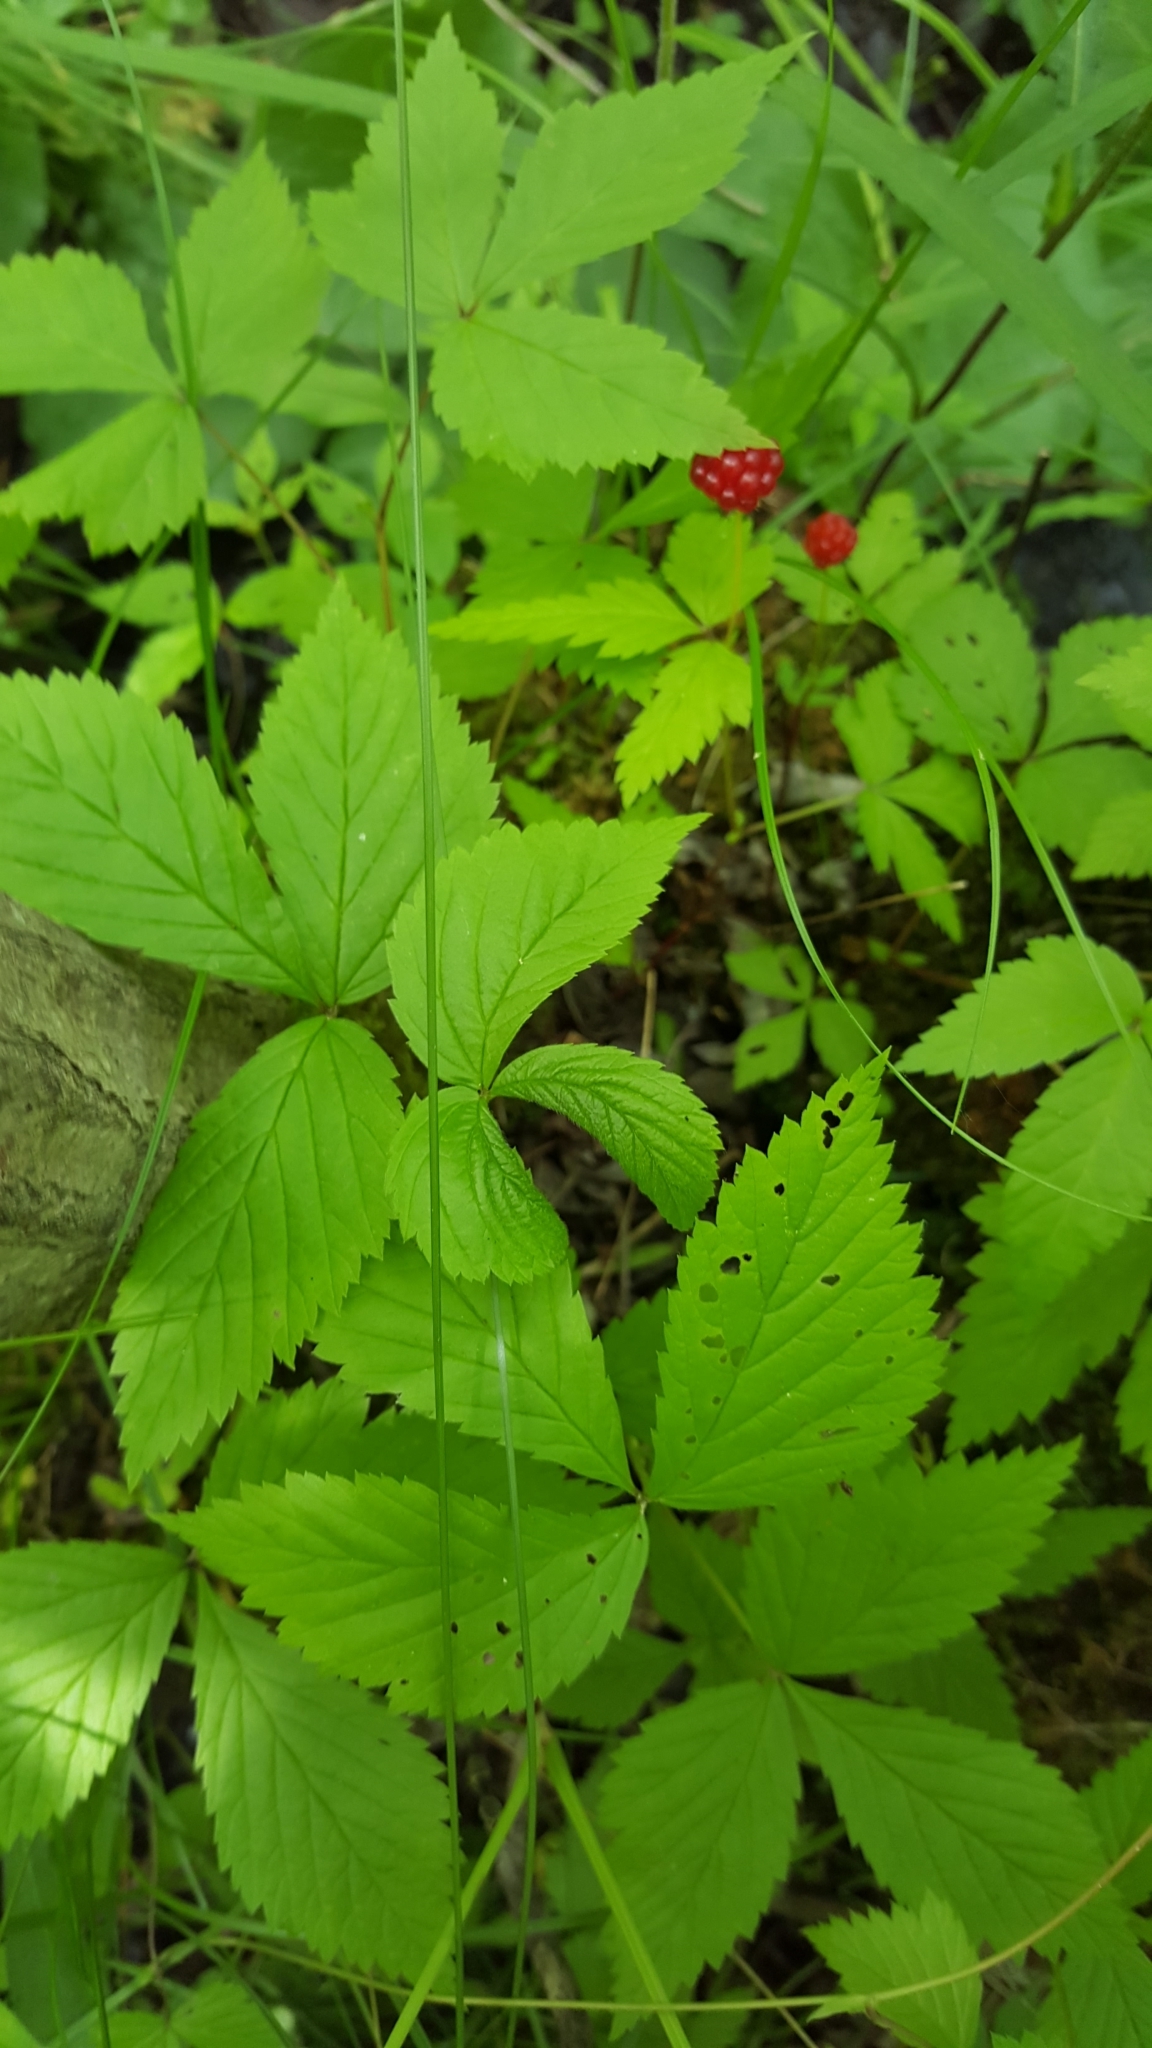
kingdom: Plantae
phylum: Tracheophyta
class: Magnoliopsida
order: Rosales
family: Rosaceae
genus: Rubus
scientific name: Rubus pubescens
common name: Dwarf raspberry
